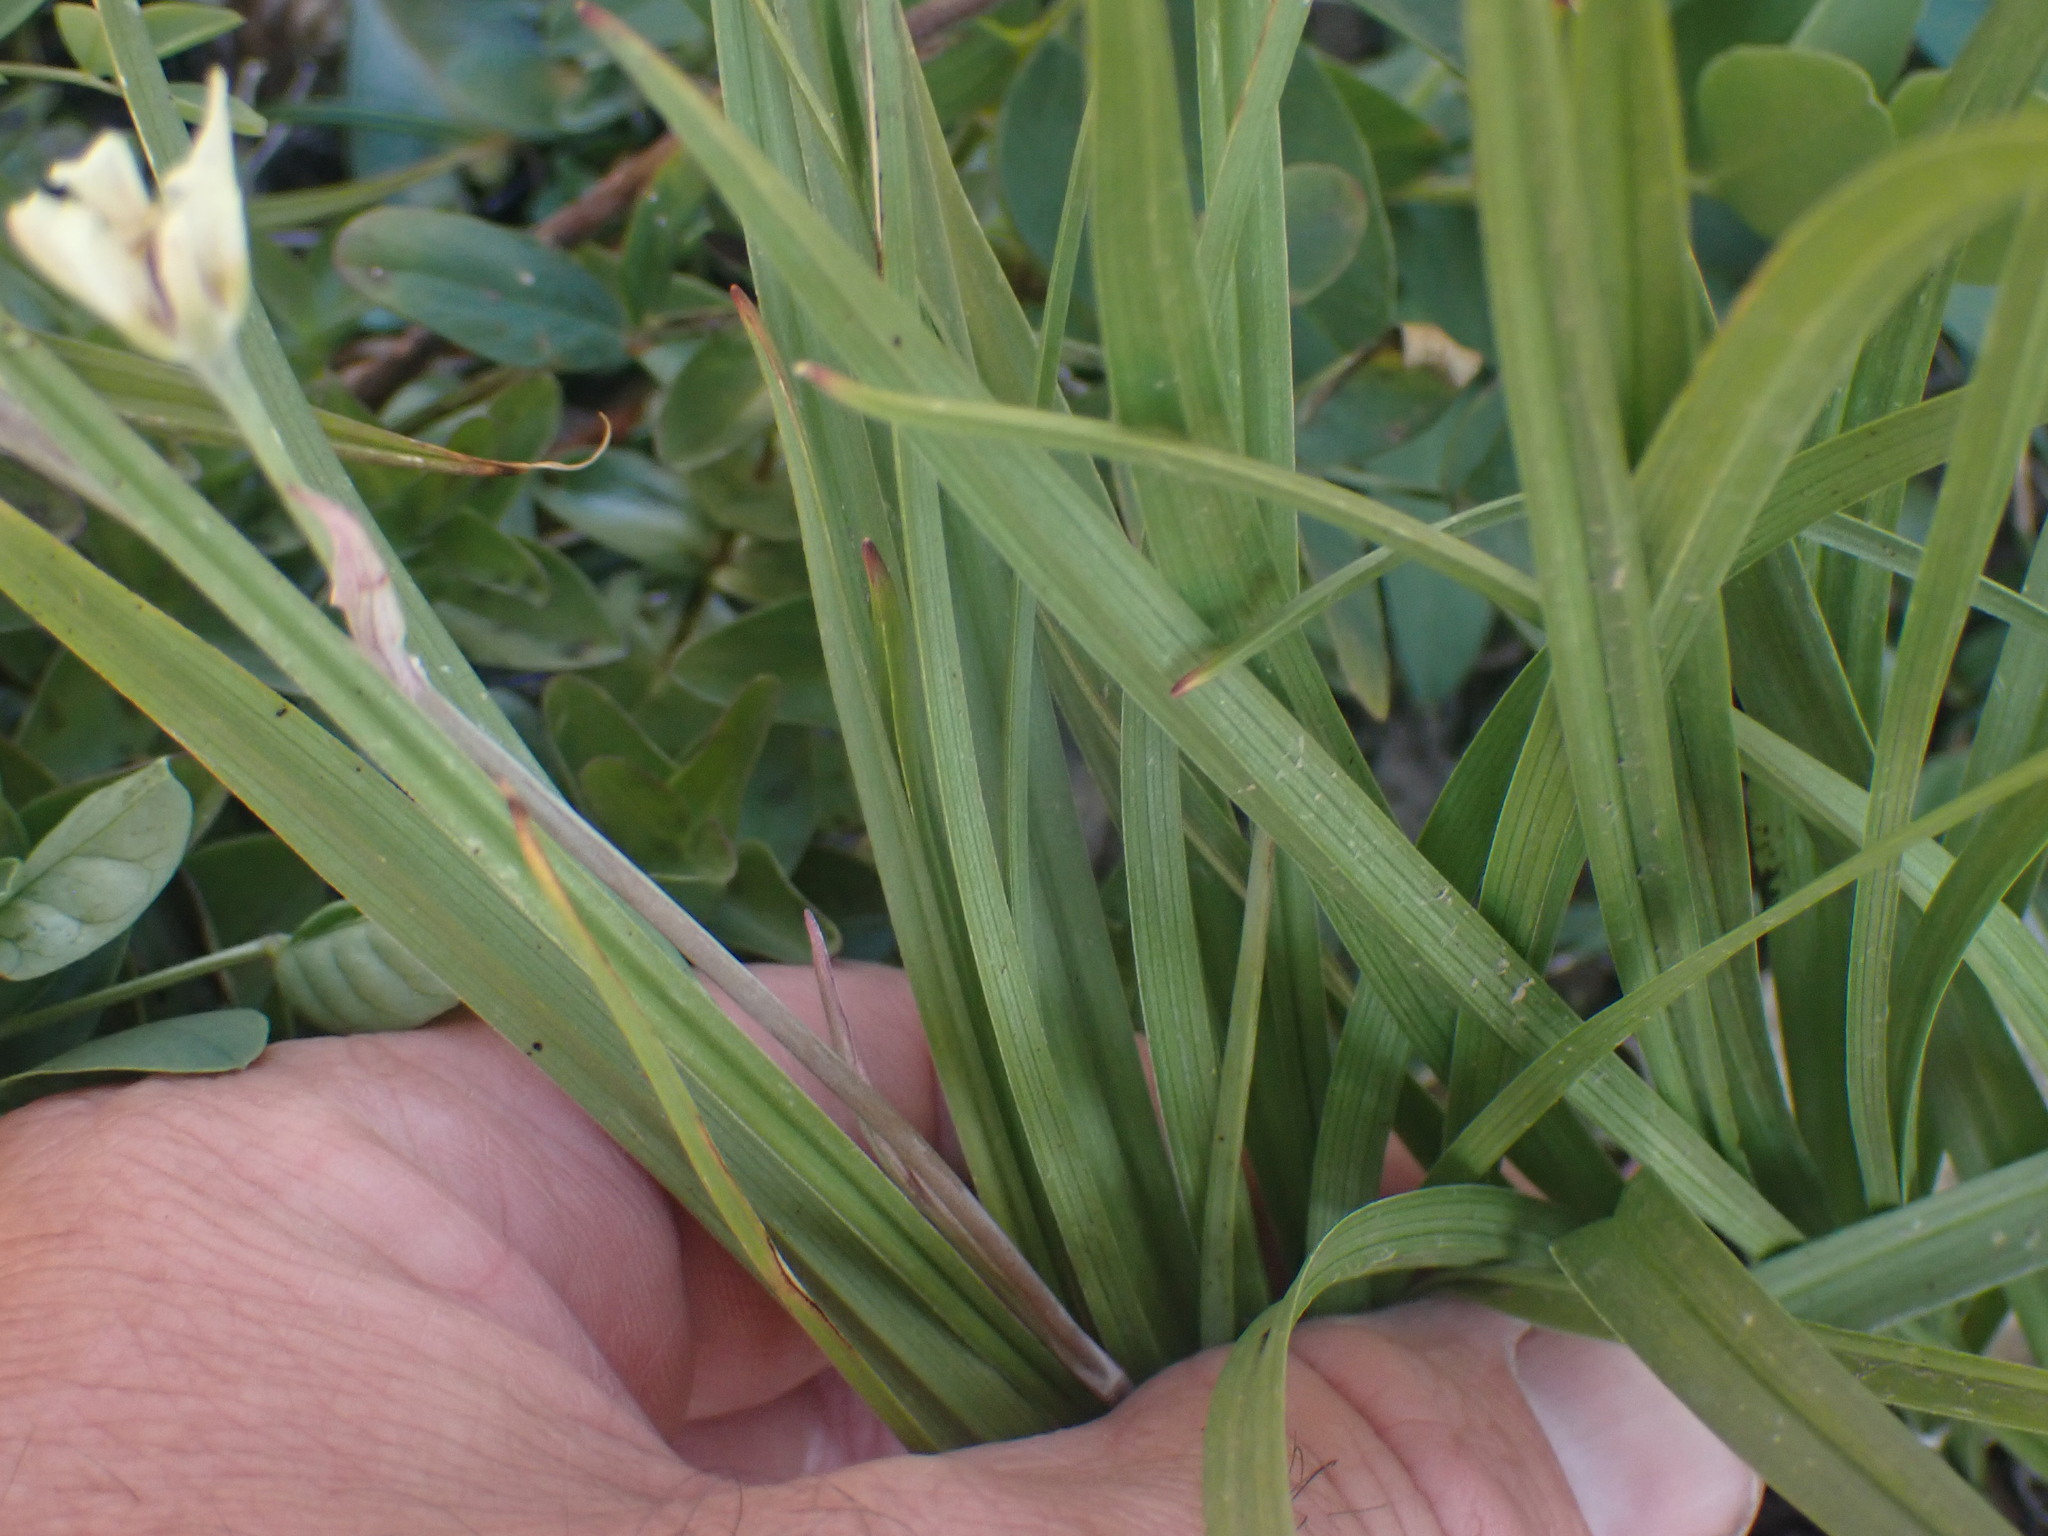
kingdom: Plantae
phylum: Tracheophyta
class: Liliopsida
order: Liliales
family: Melanthiaceae
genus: Anticlea
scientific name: Anticlea elegans
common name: Mountain death camas
